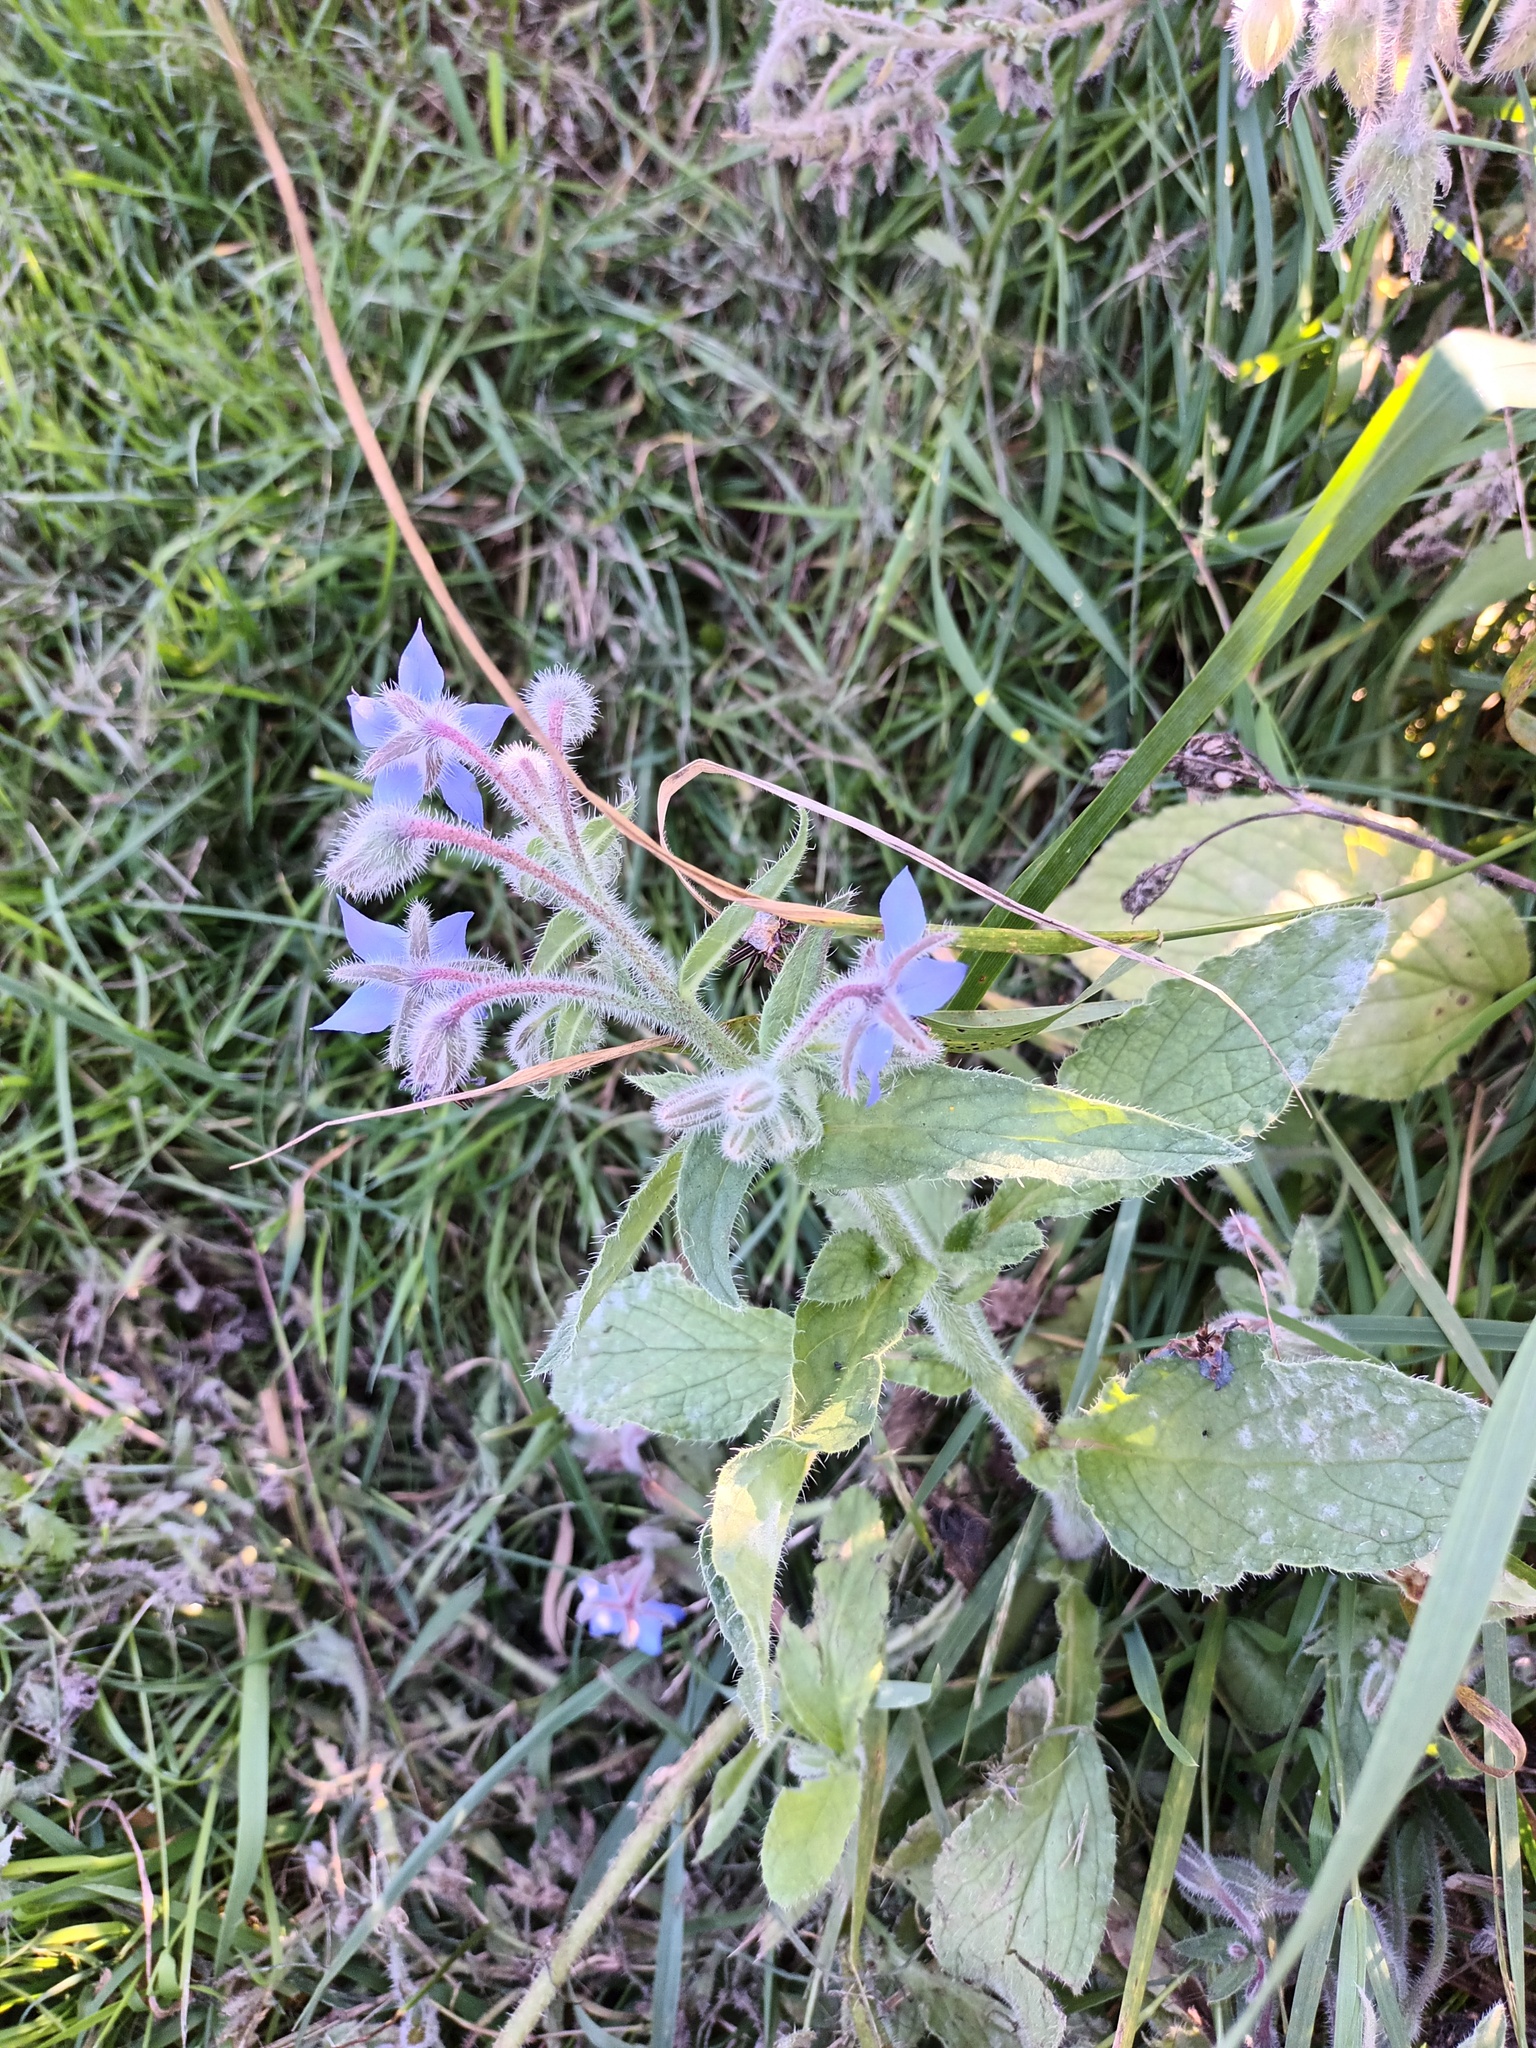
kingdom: Plantae
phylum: Tracheophyta
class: Magnoliopsida
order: Boraginales
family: Boraginaceae
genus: Borago
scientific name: Borago officinalis
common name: Borage
